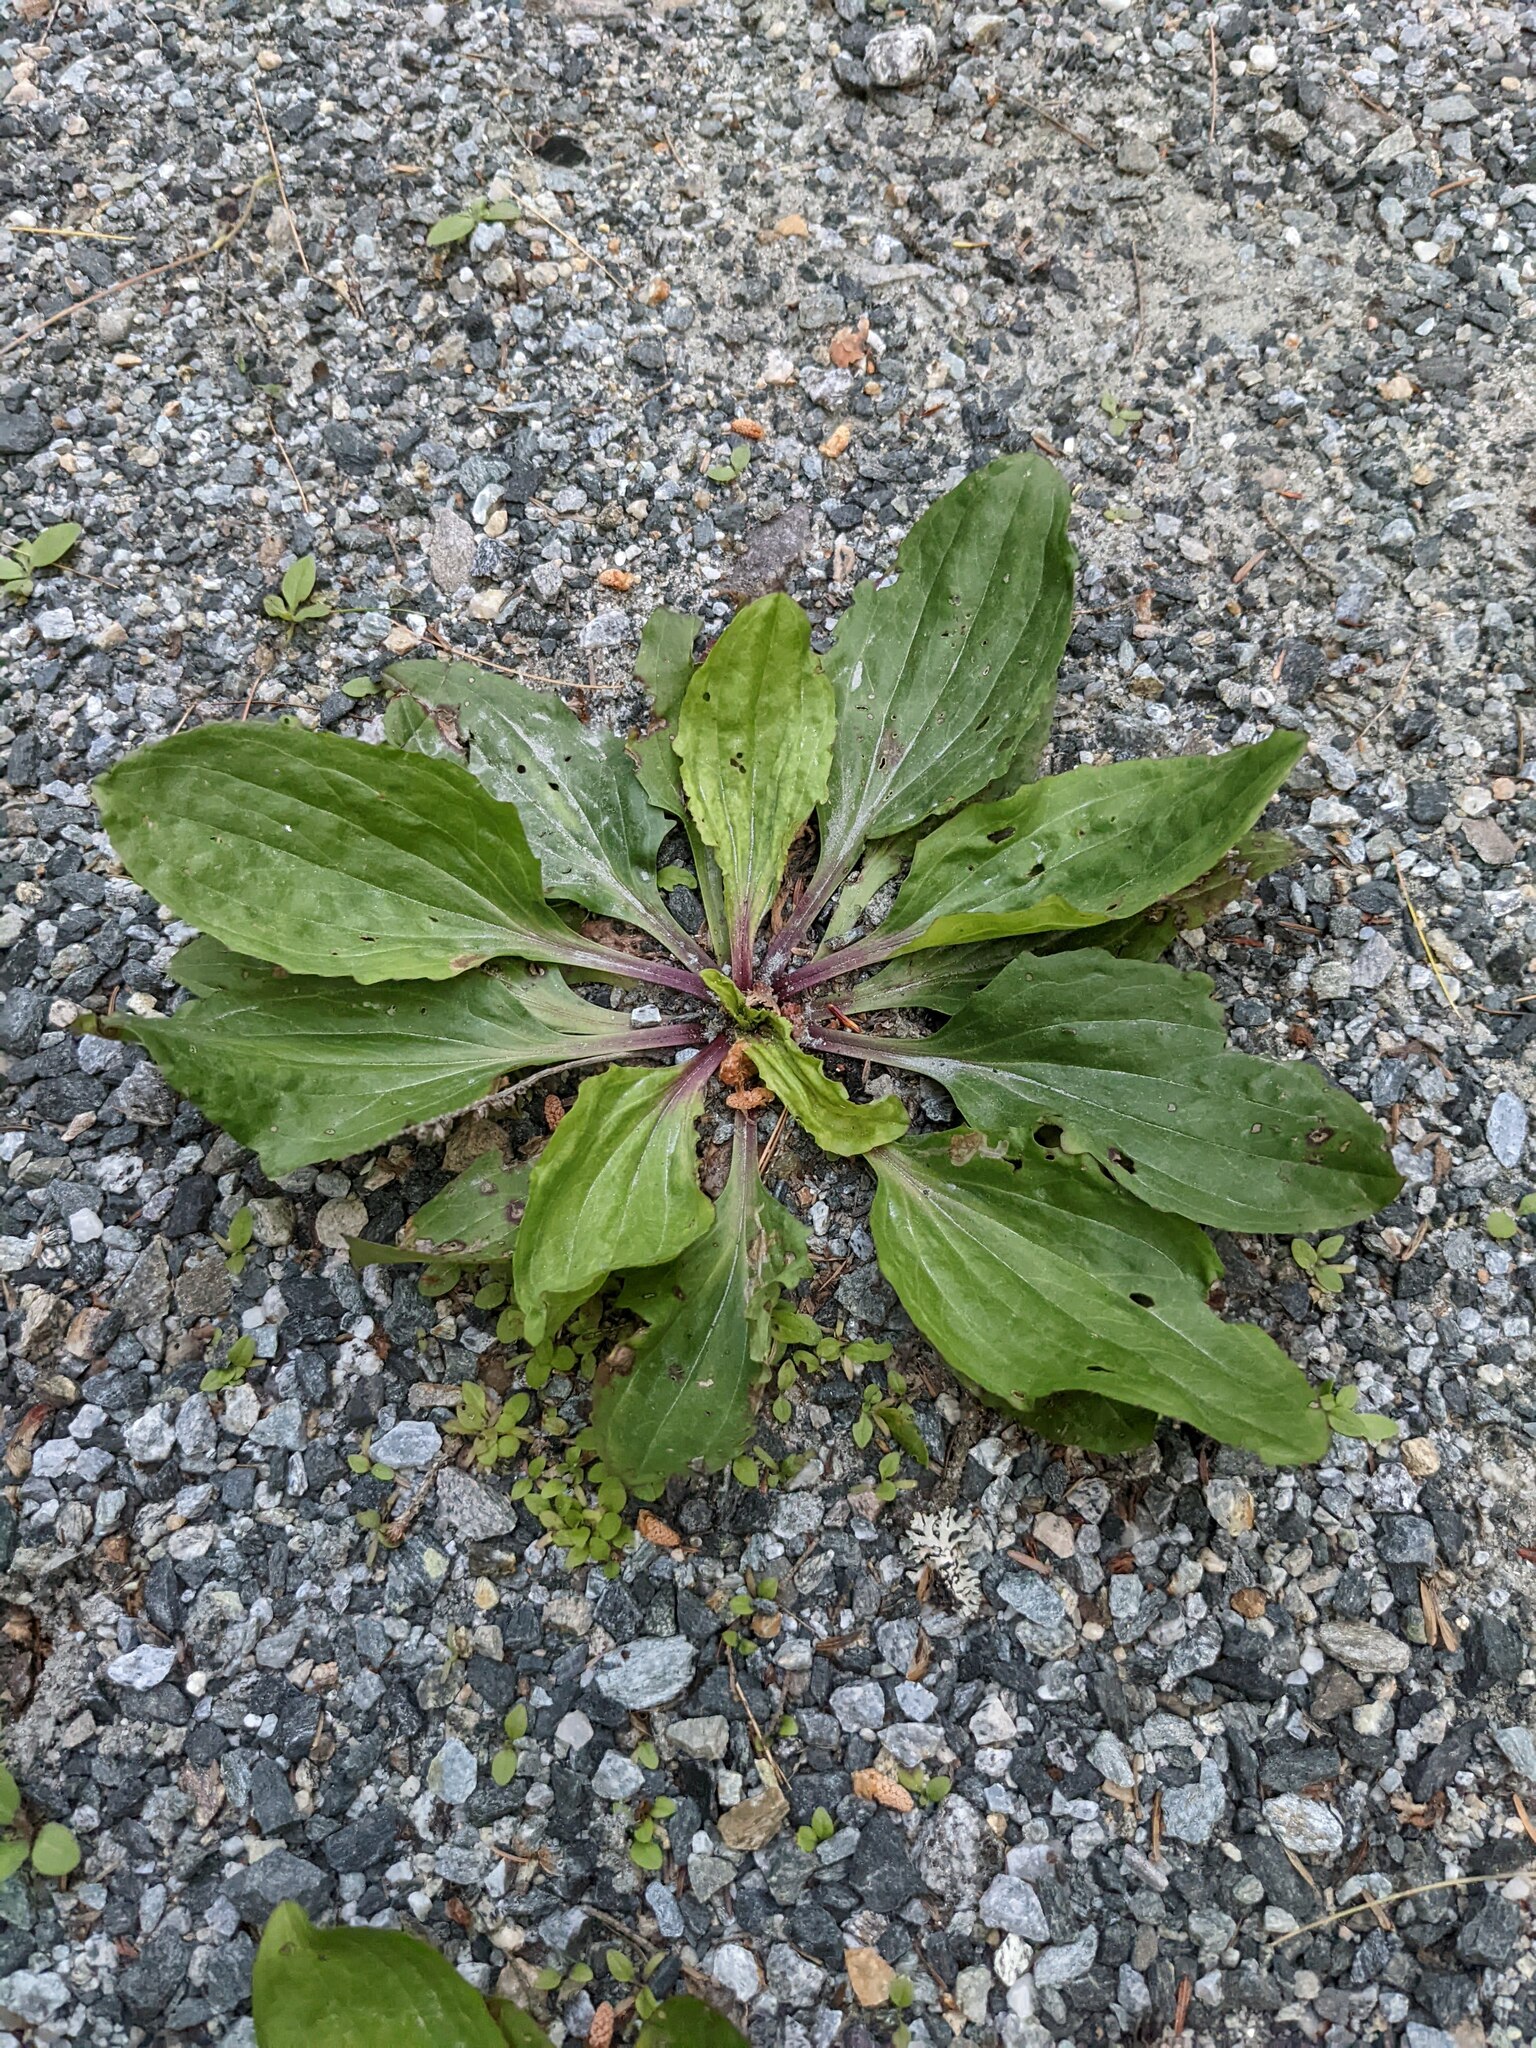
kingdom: Plantae
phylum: Tracheophyta
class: Magnoliopsida
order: Lamiales
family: Plantaginaceae
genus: Plantago
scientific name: Plantago rugelii
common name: American plantain
